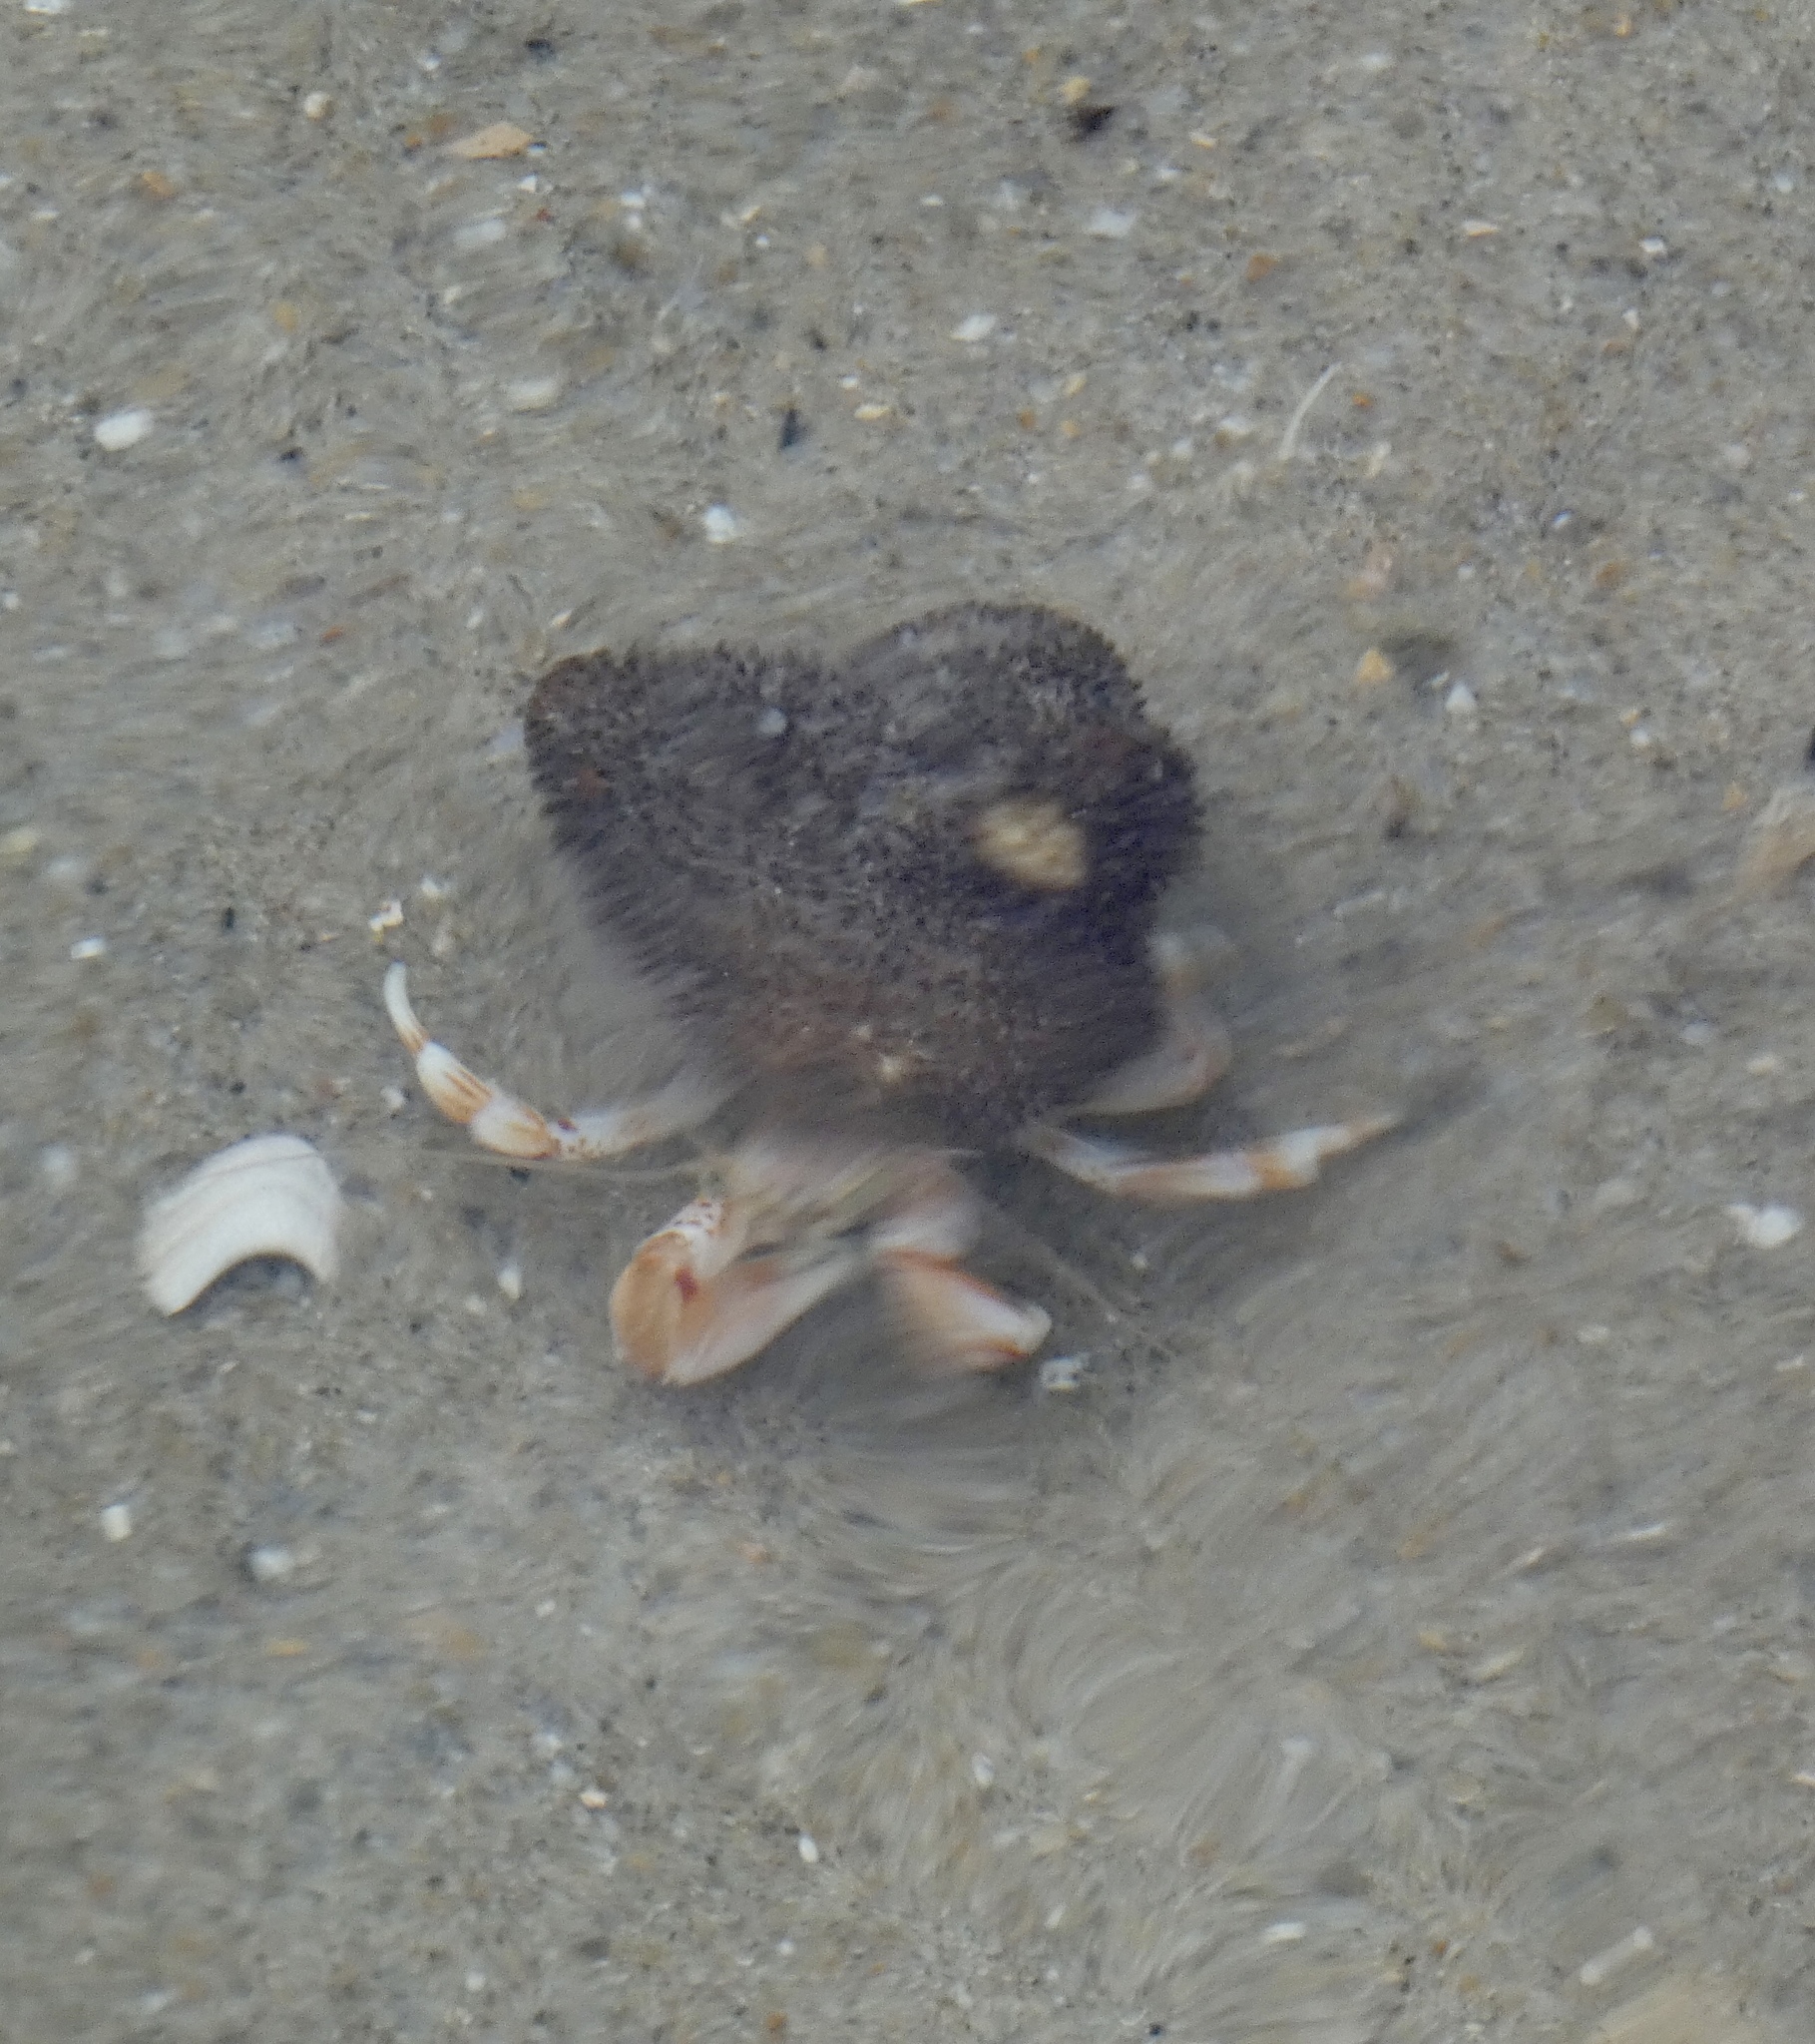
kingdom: Animalia
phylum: Arthropoda
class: Malacostraca
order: Decapoda
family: Paguridae
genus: Pagurus
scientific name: Pagurus bernhardus
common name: Hermit crab
